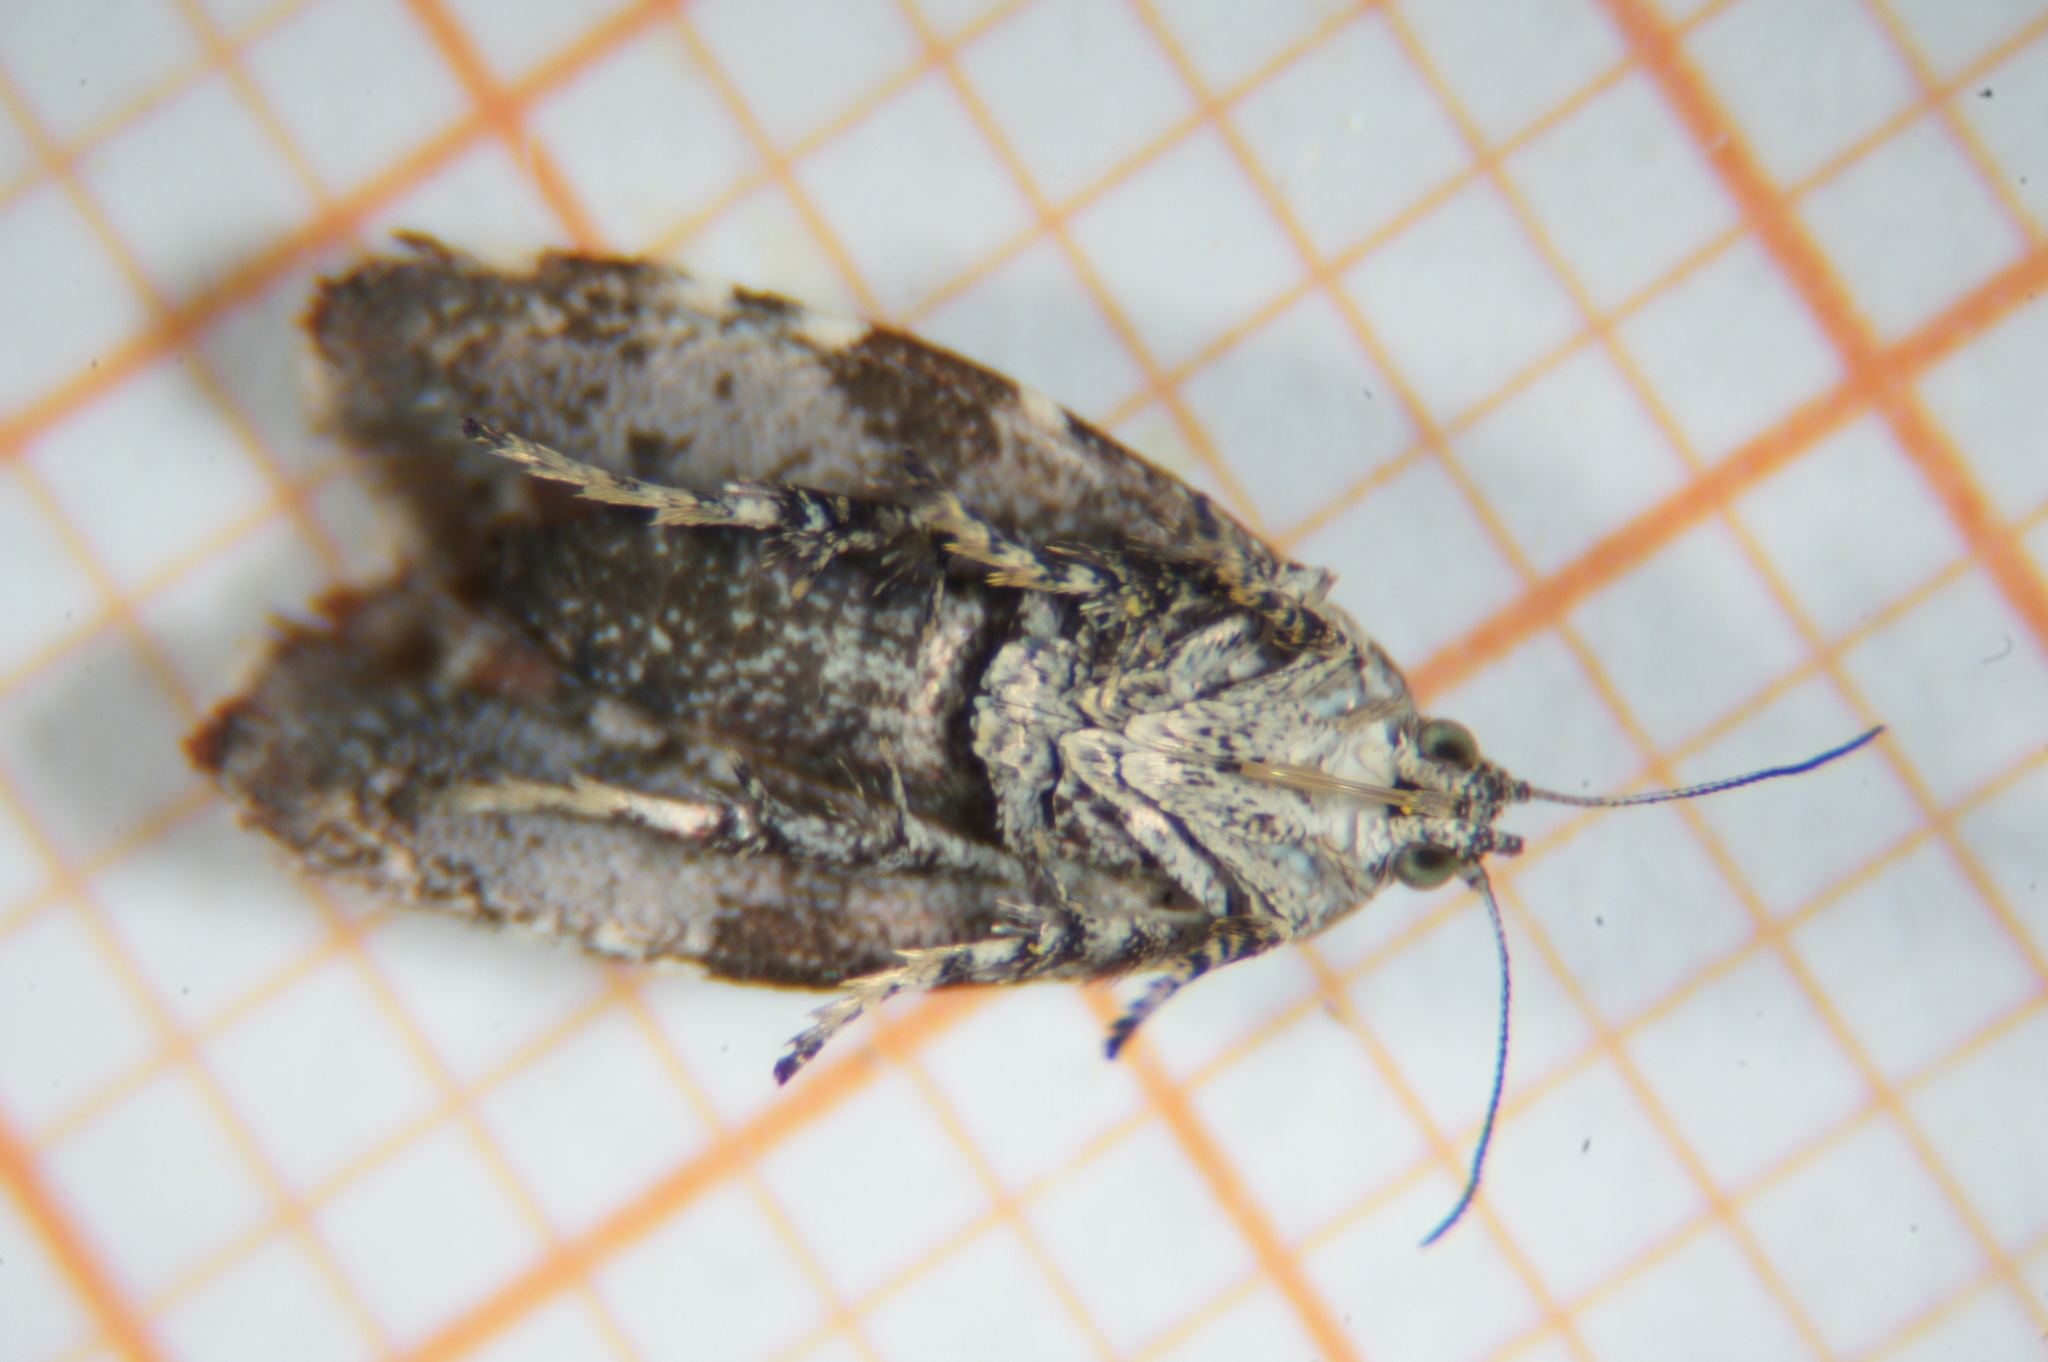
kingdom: Animalia
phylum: Arthropoda
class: Insecta
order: Lepidoptera
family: Choreutidae
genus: Choreutis
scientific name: Choreutis pariana
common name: Apple leaf skeletoniser
